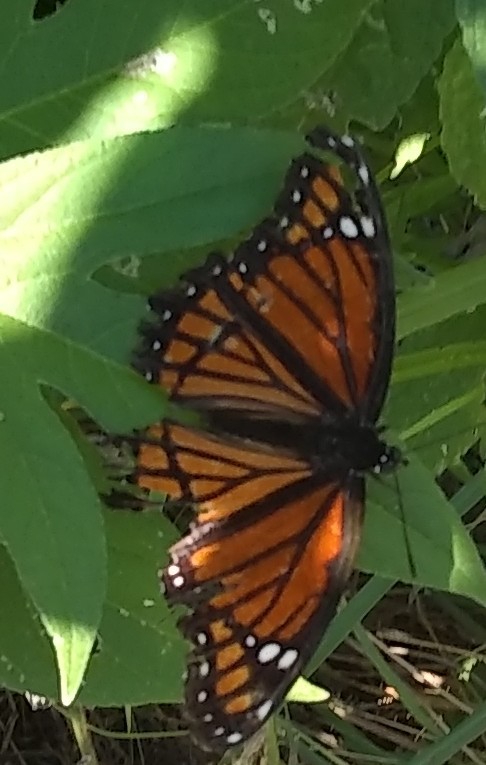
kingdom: Animalia
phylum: Arthropoda
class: Insecta
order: Lepidoptera
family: Nymphalidae
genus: Limenitis
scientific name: Limenitis archippus
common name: Viceroy
